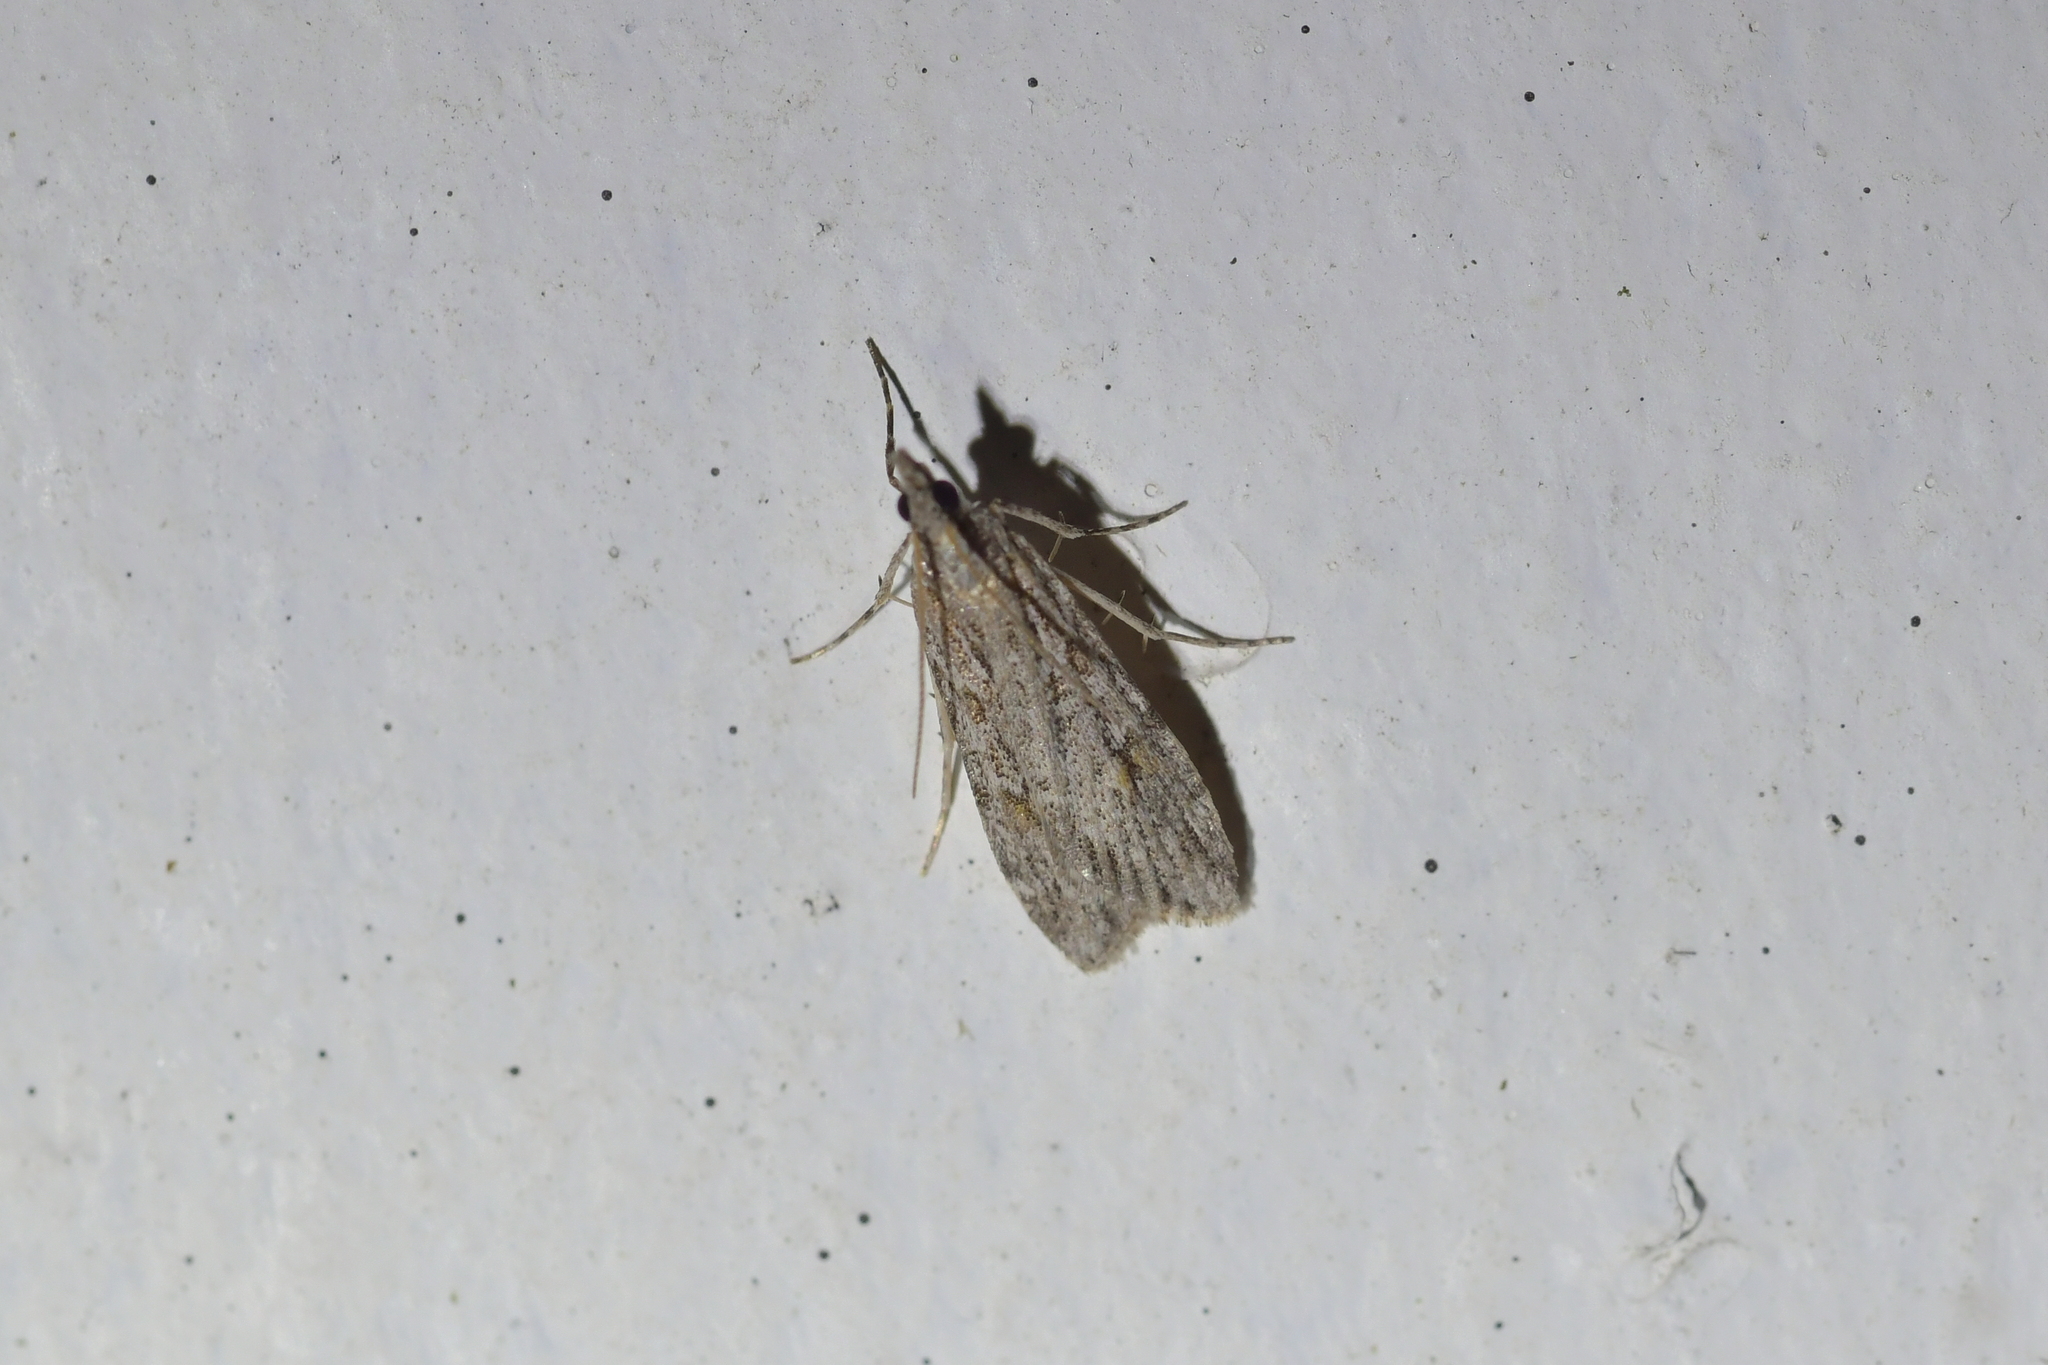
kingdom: Animalia
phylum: Arthropoda
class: Insecta
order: Lepidoptera
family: Crambidae
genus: Scoparia
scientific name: Scoparia chalicodes
